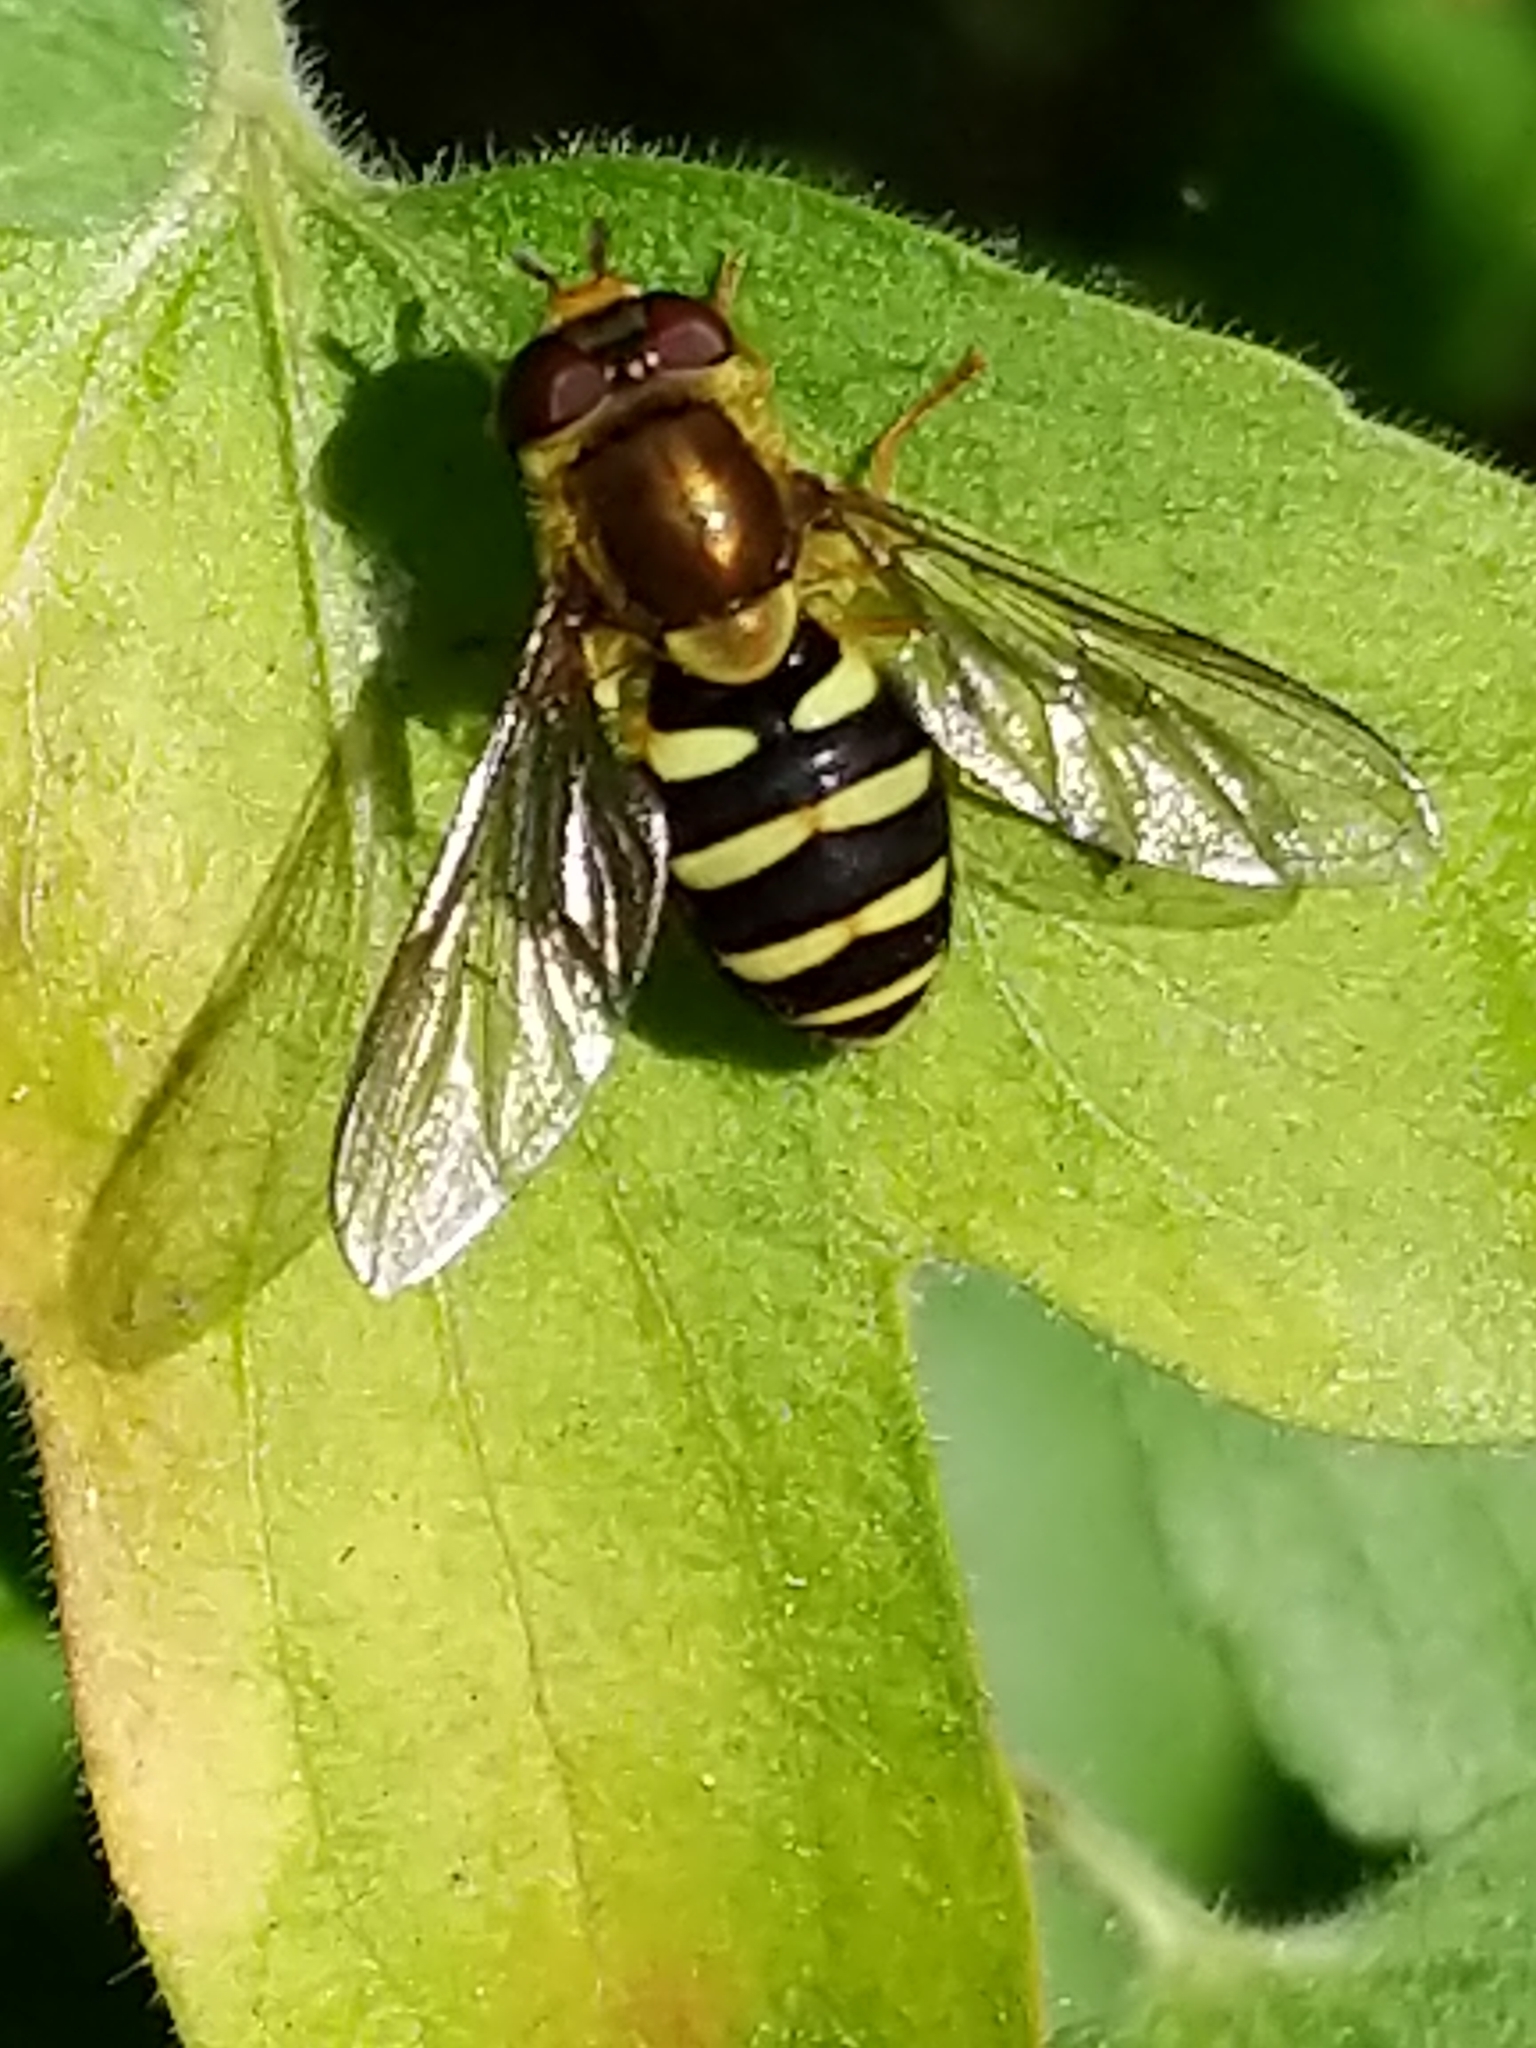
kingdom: Animalia
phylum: Arthropoda
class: Insecta
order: Diptera
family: Syrphidae
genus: Syrphus
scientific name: Syrphus opinator
